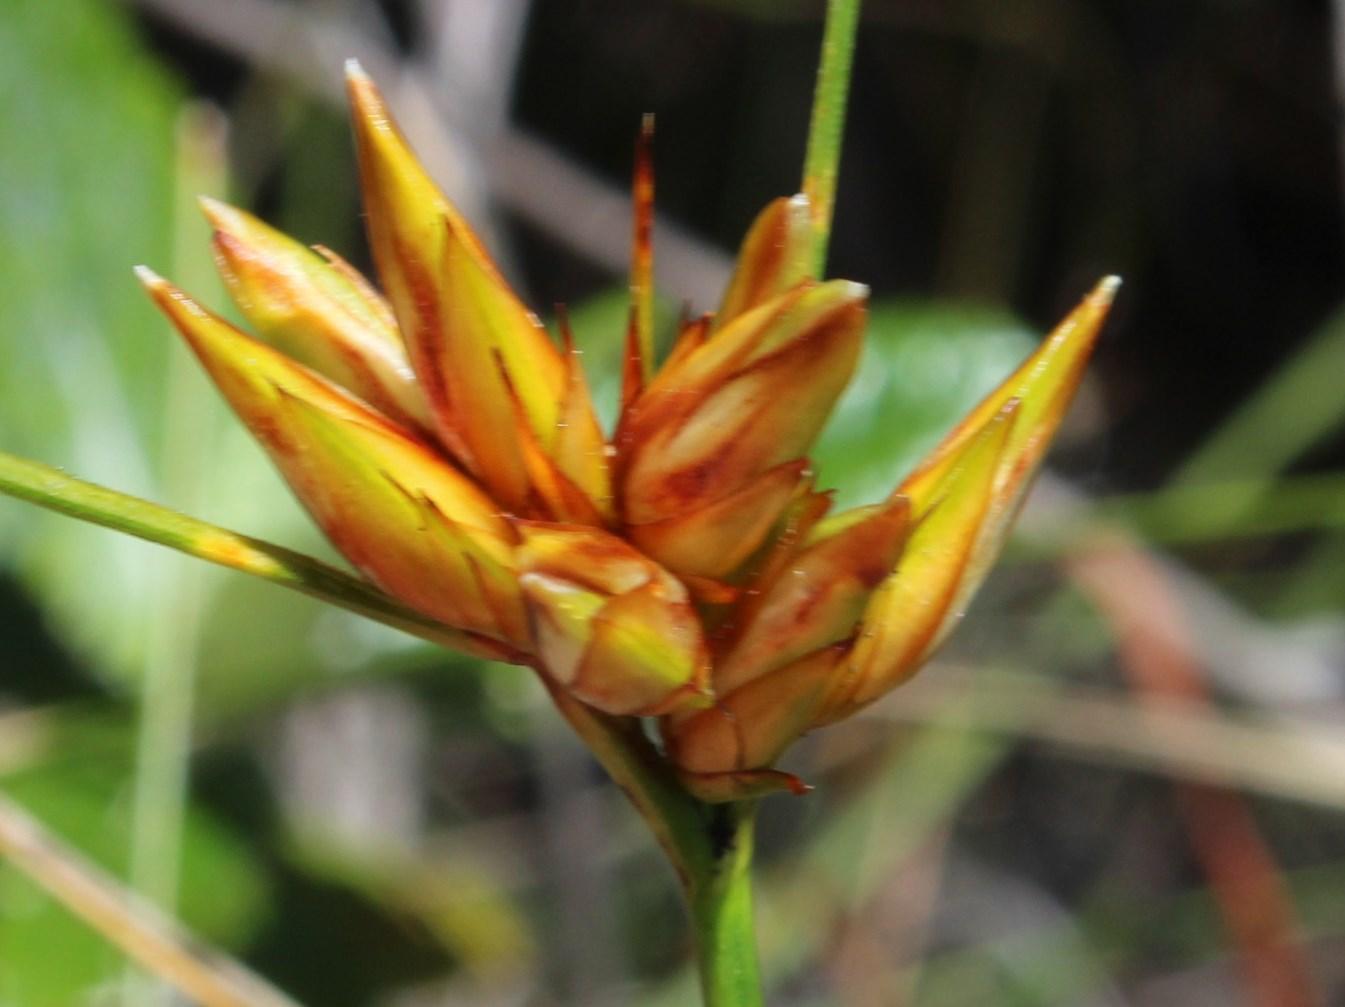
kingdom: Plantae
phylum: Tracheophyta
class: Liliopsida
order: Poales
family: Cyperaceae
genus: Schoenus
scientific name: Schoenus compar
